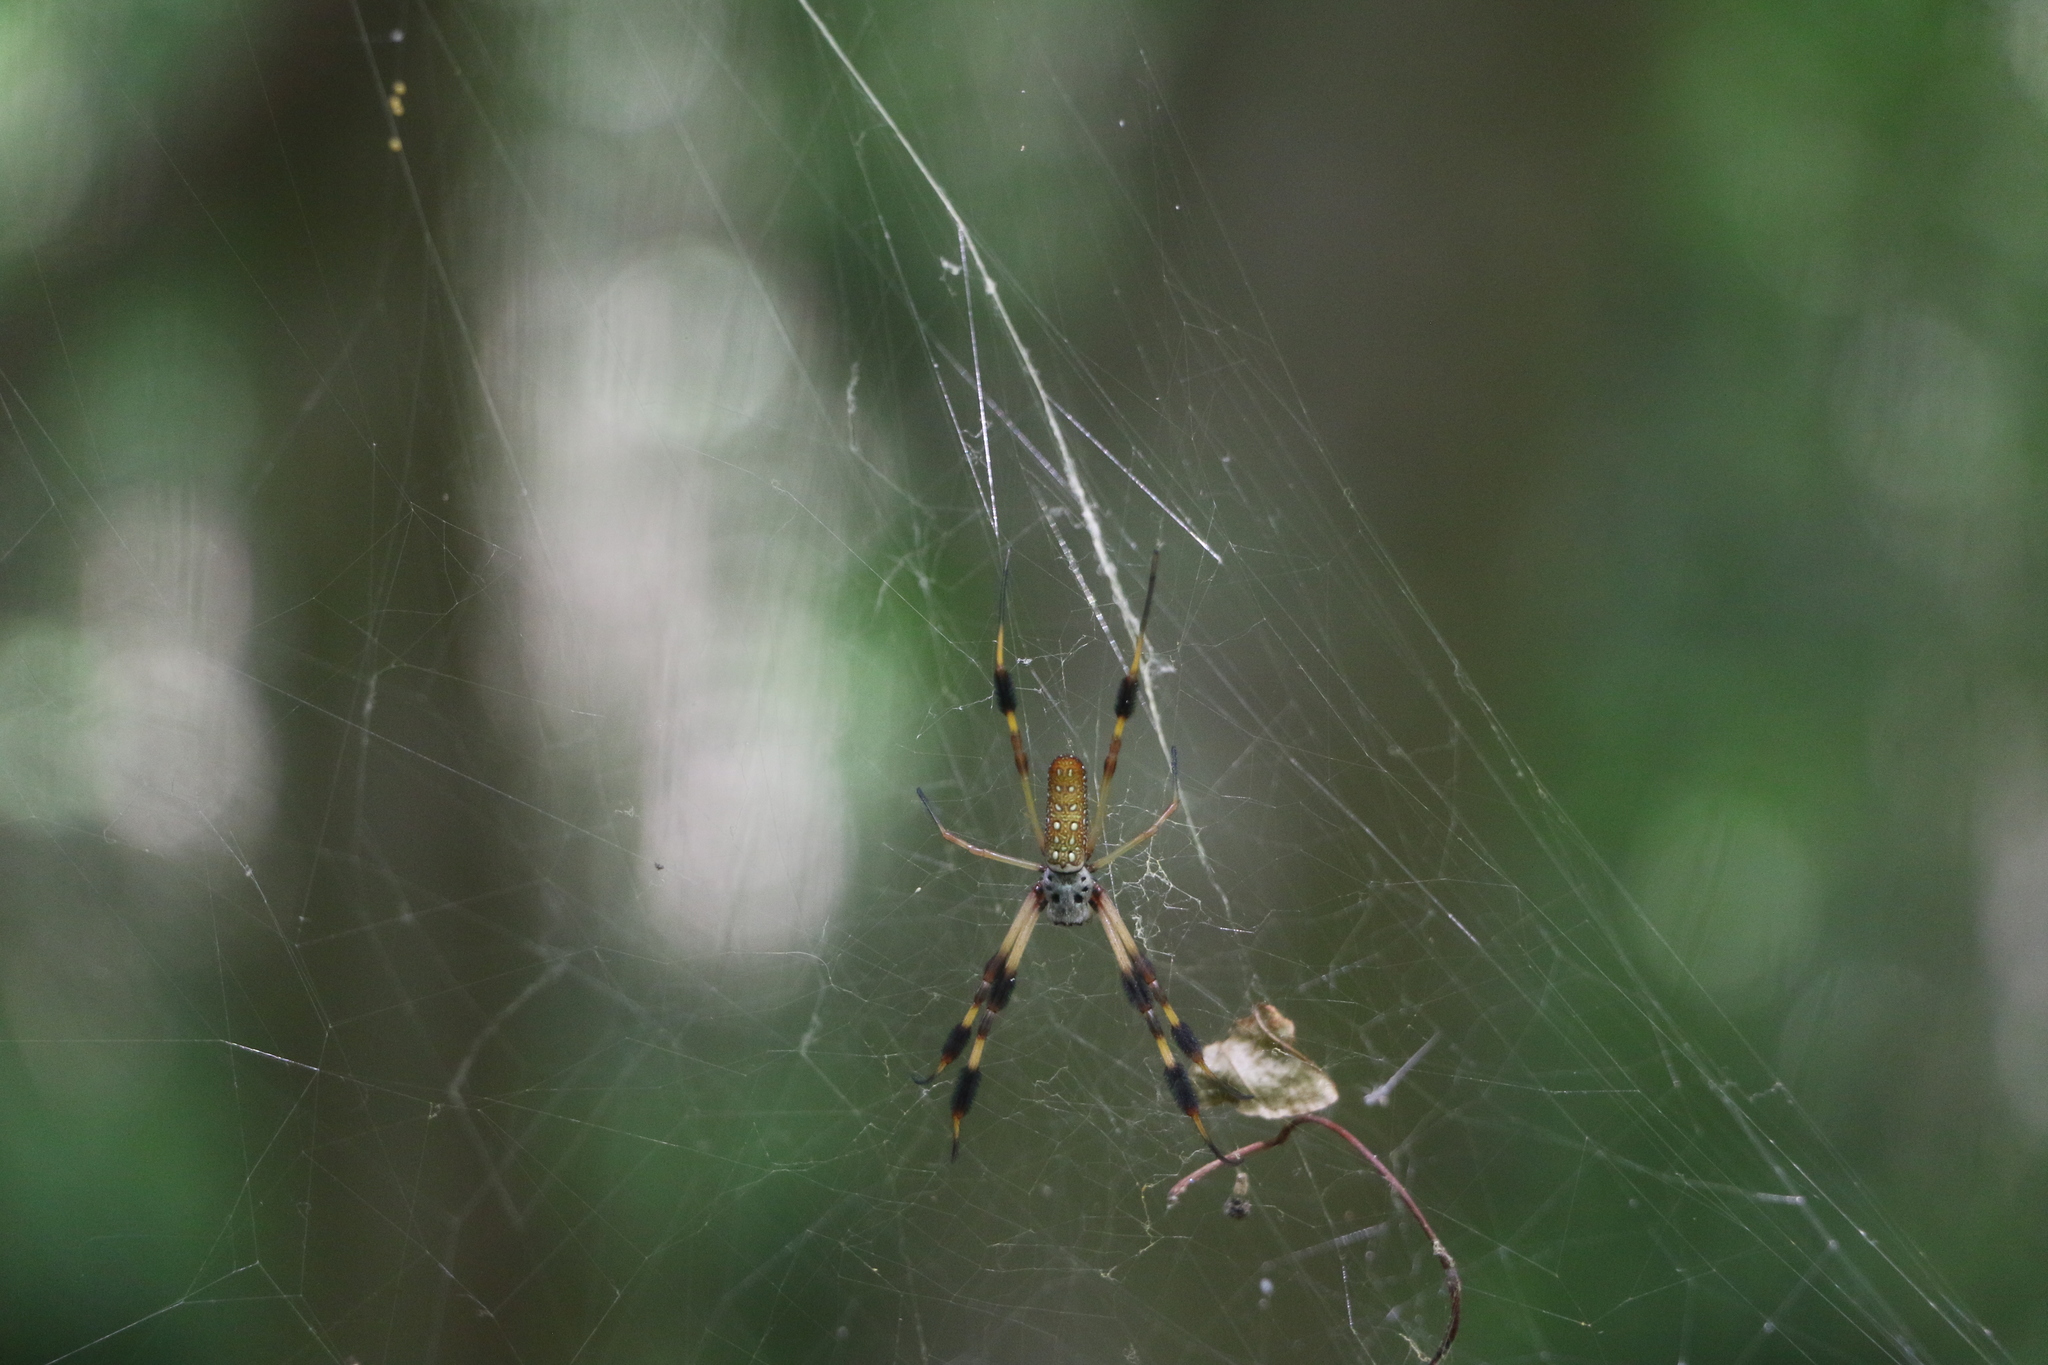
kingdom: Animalia
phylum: Arthropoda
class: Arachnida
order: Araneae
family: Araneidae
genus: Trichonephila
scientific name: Trichonephila clavipes
